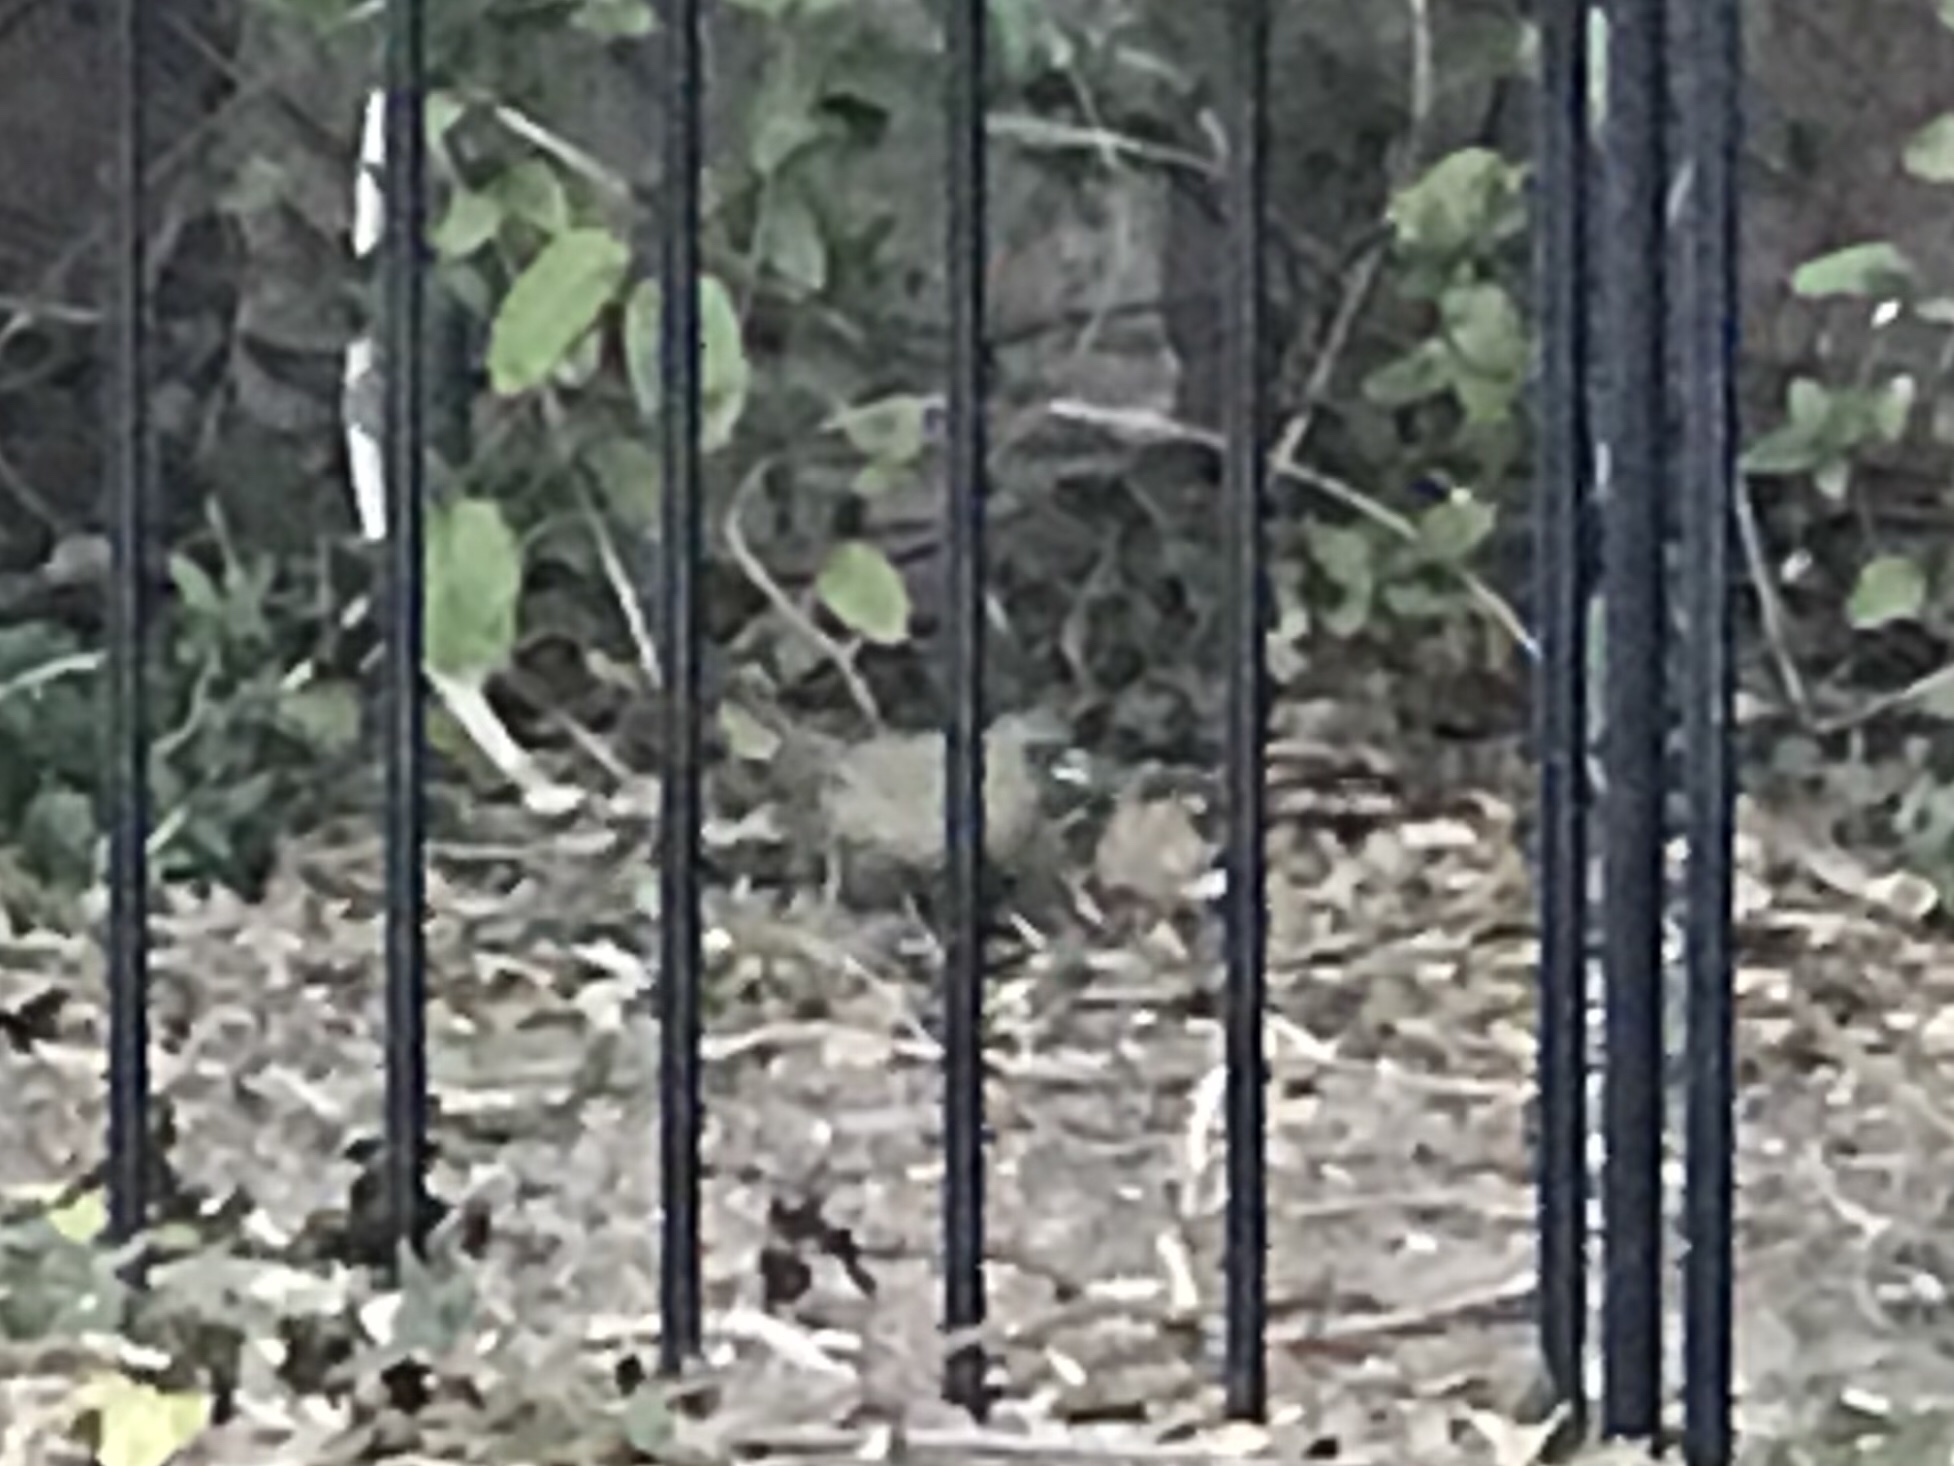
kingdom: Animalia
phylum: Chordata
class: Aves
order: Passeriformes
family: Passerellidae
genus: Melozone
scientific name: Melozone aberti
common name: Abert's towhee
